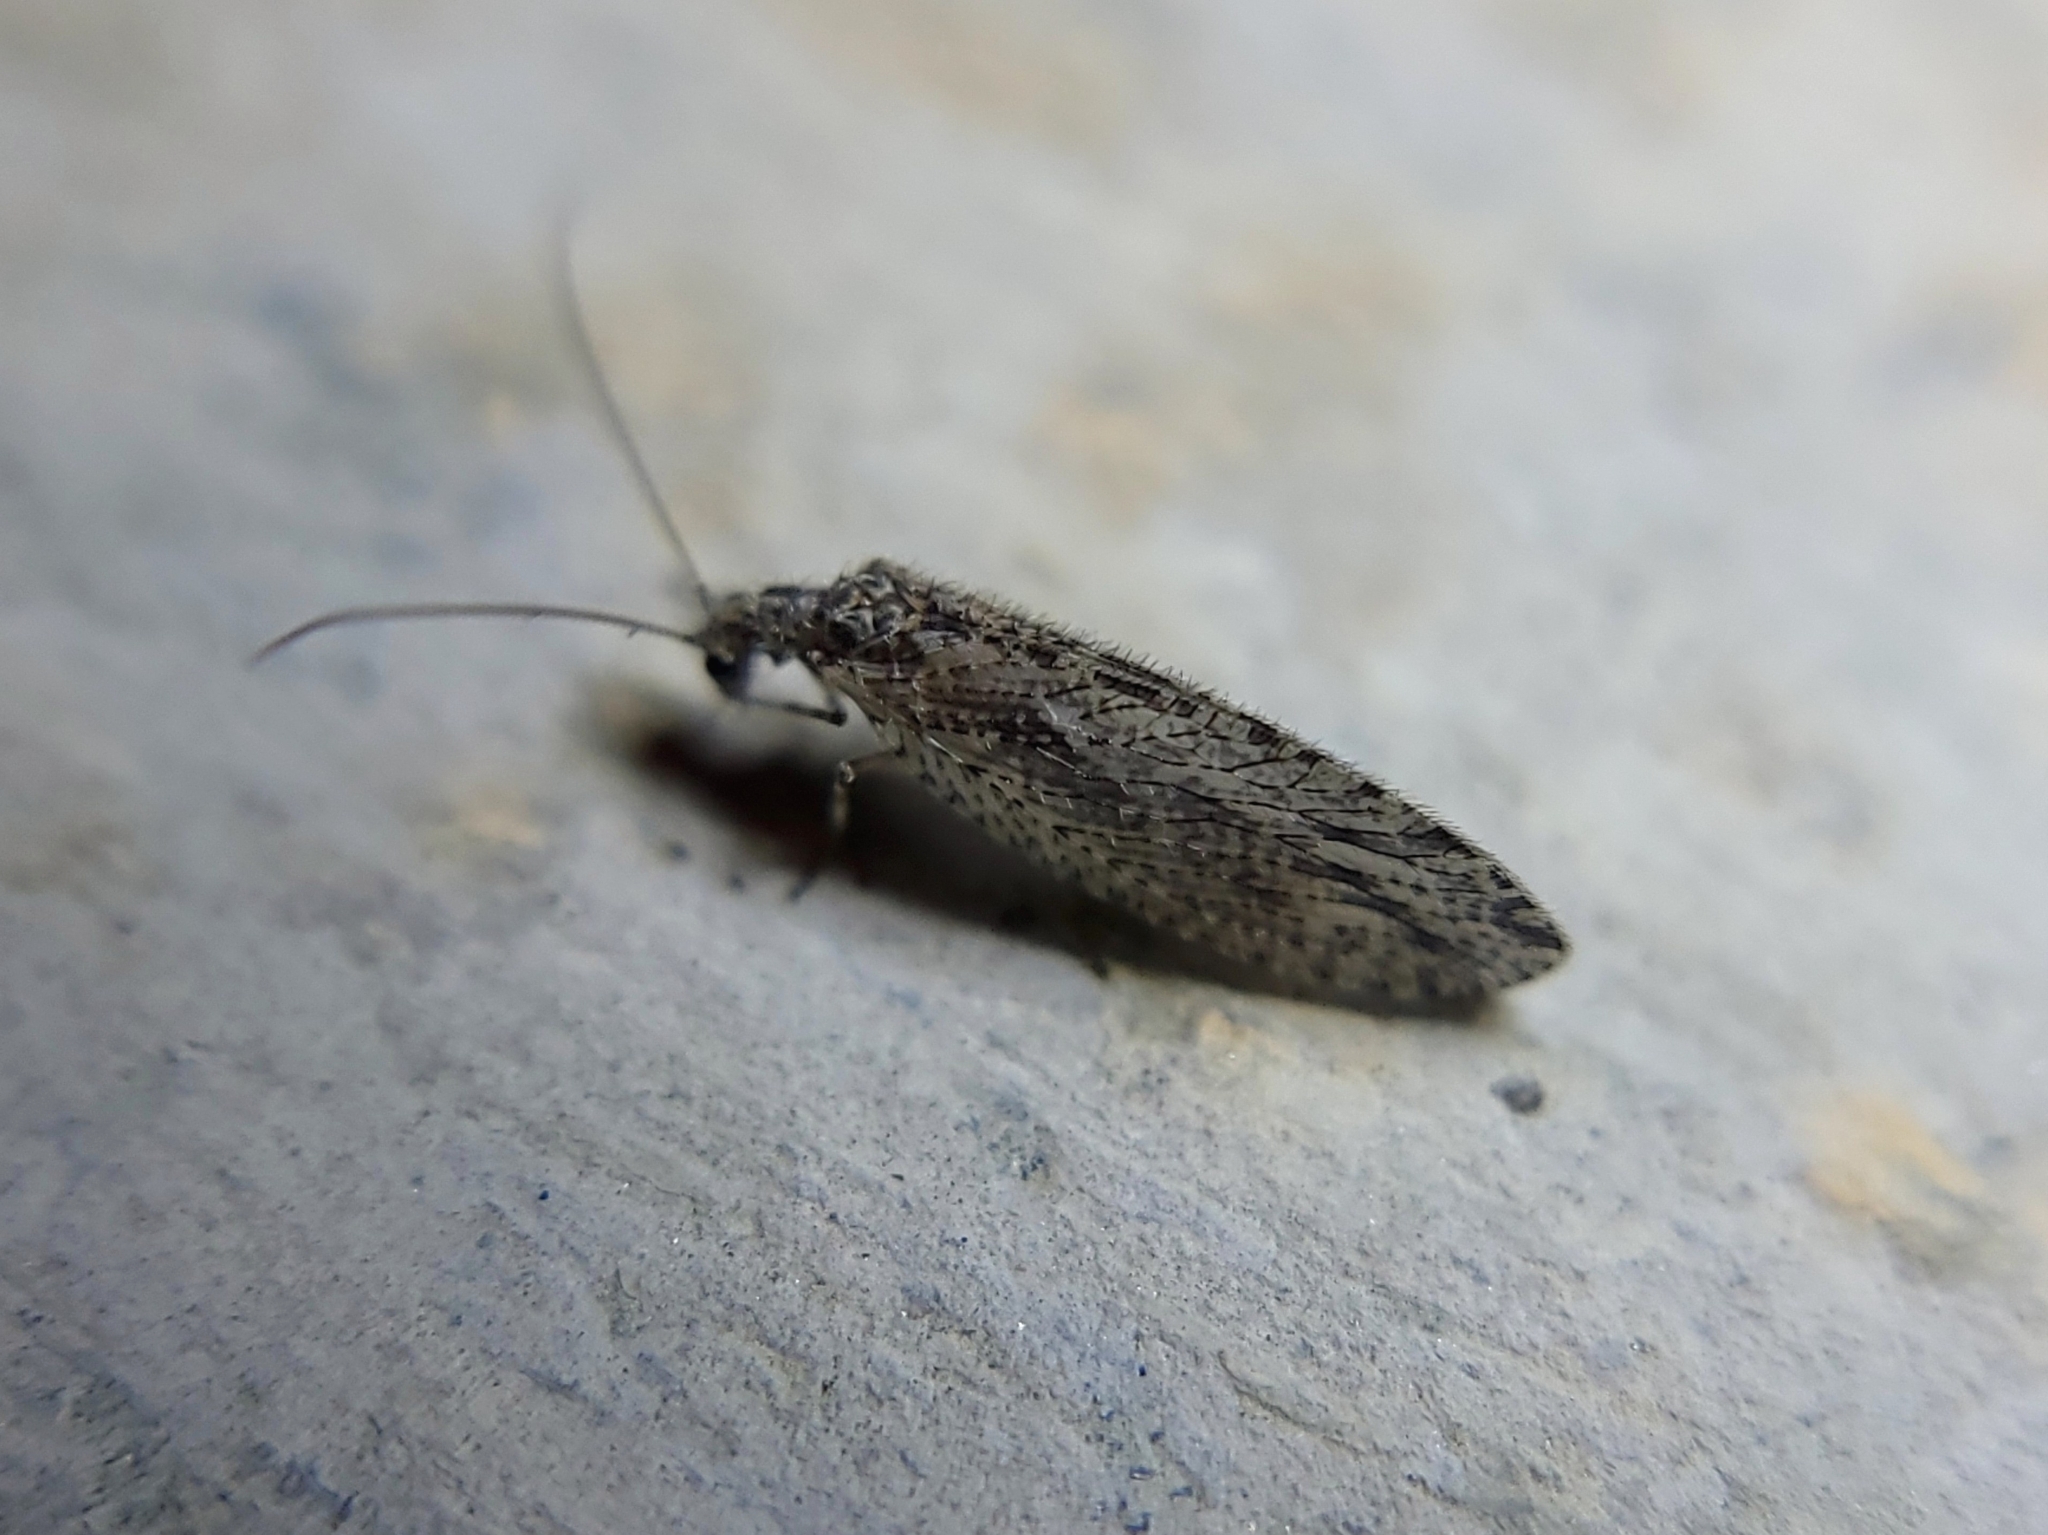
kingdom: Animalia
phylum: Arthropoda
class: Insecta
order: Neuroptera
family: Hemerobiidae
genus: Micromus
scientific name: Micromus variolosus
